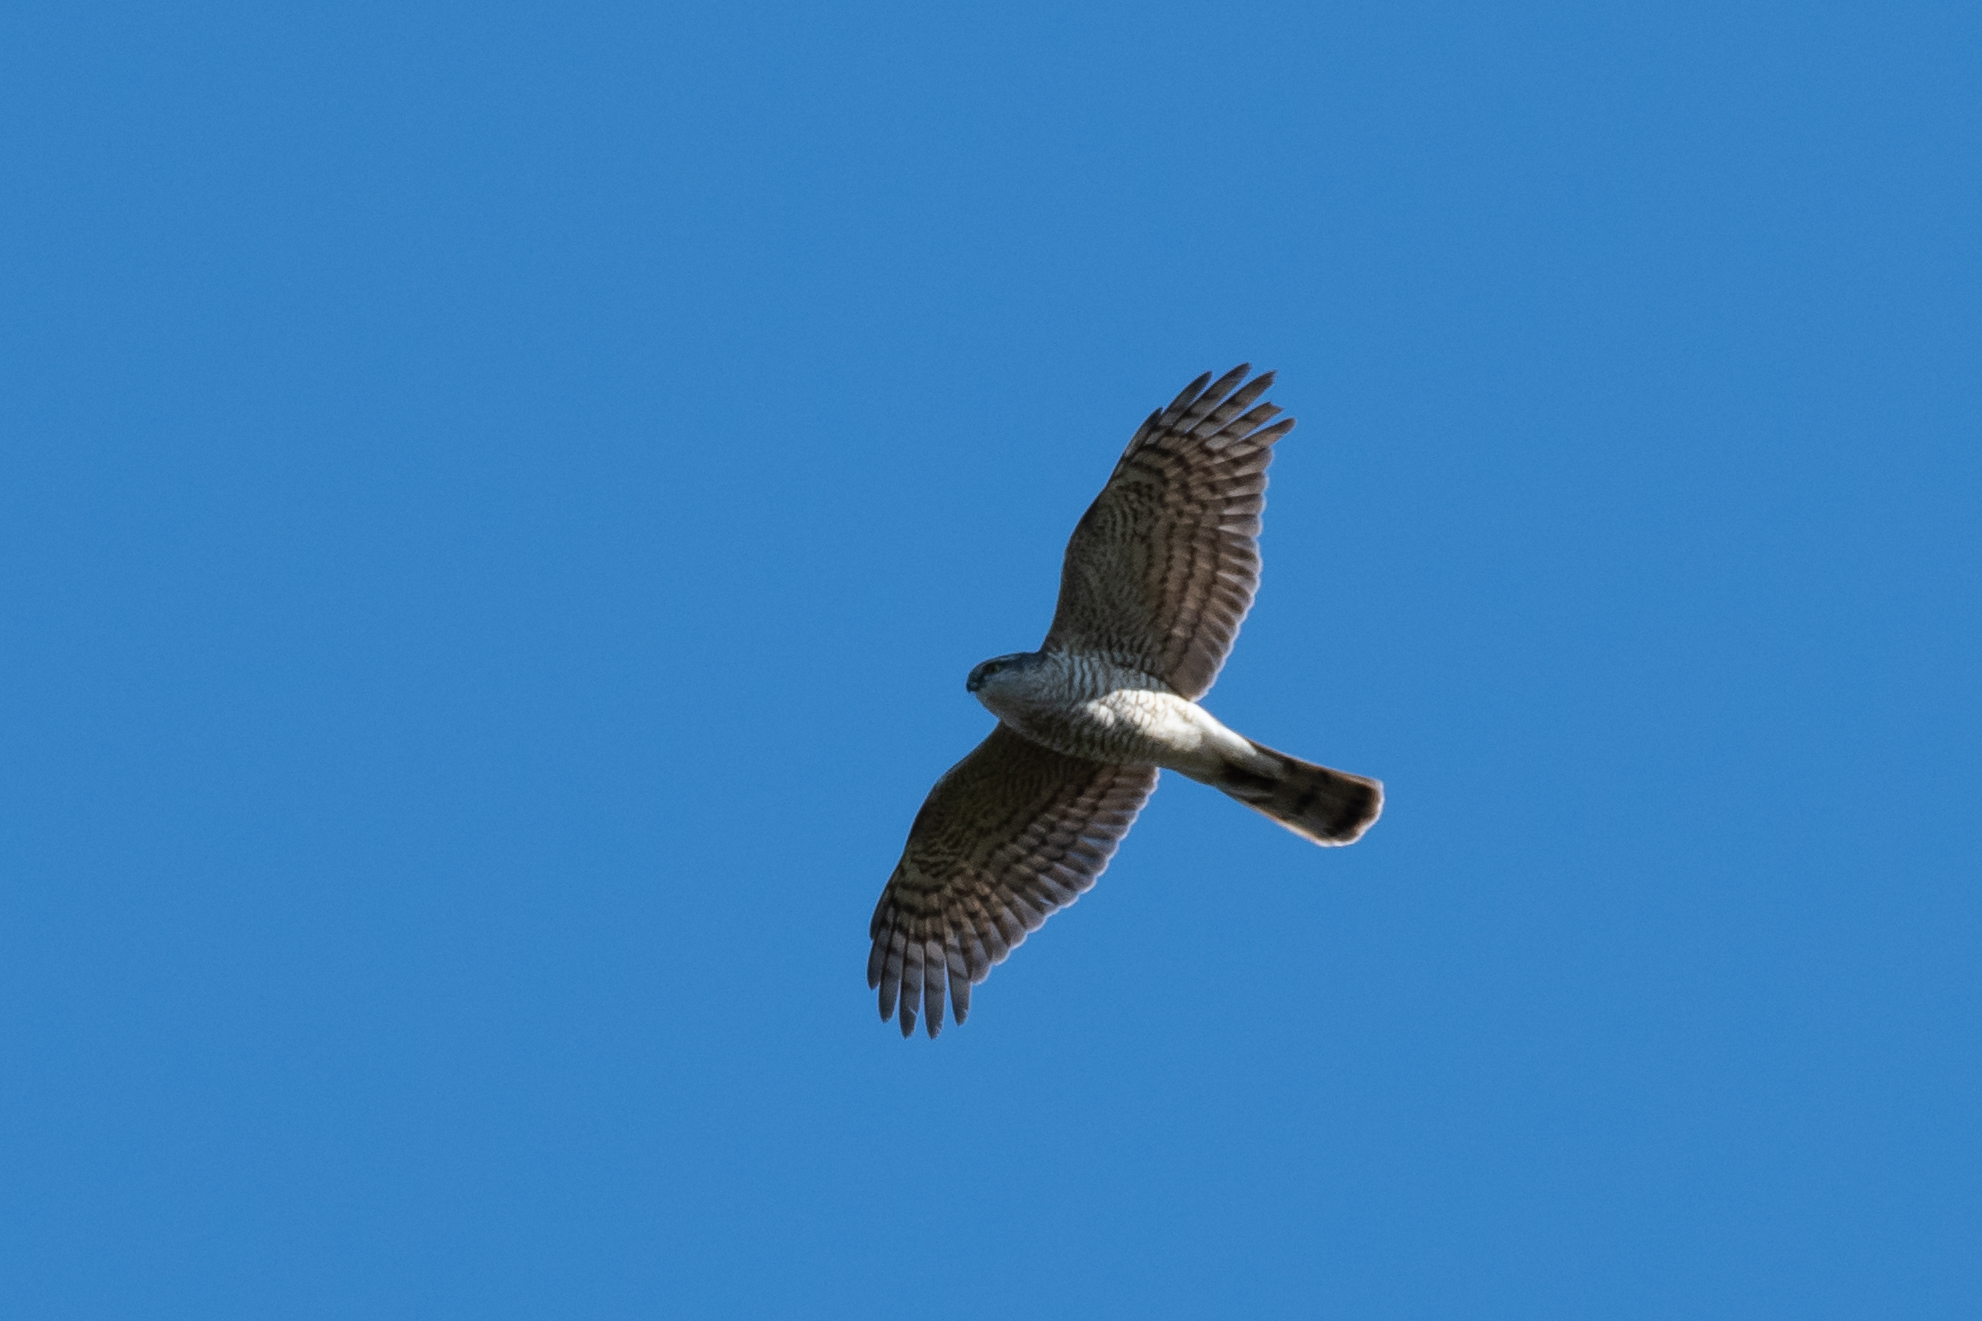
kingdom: Animalia
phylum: Chordata
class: Aves
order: Accipitriformes
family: Accipitridae
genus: Accipiter
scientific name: Accipiter nisus
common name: Eurasian sparrowhawk
